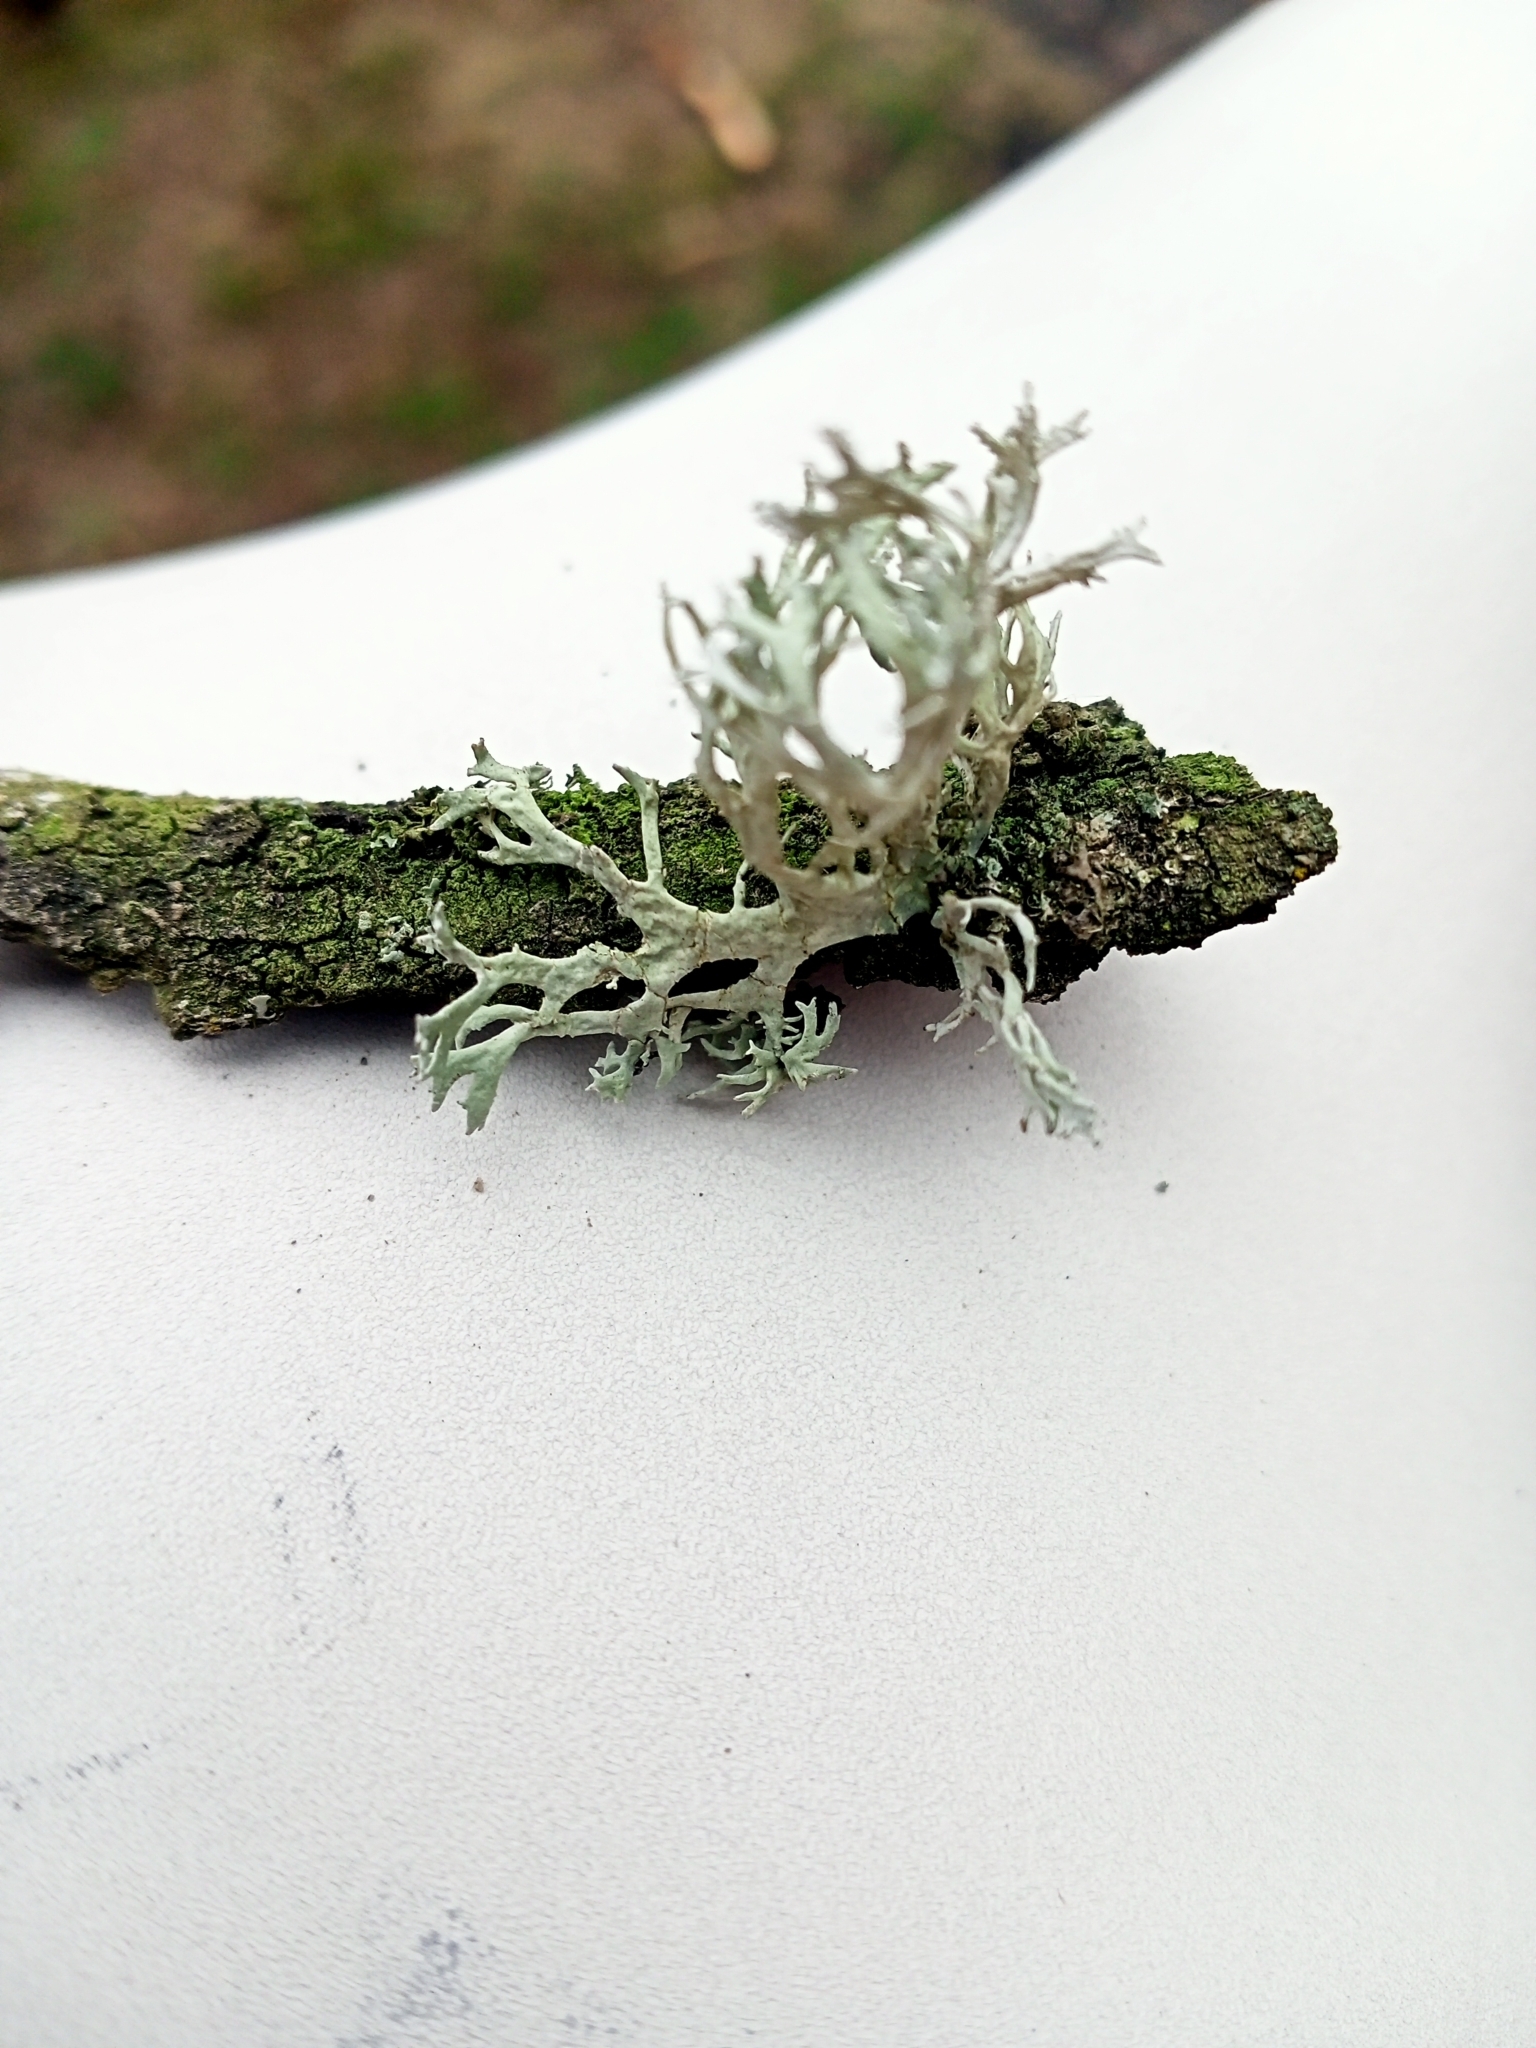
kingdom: Fungi
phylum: Ascomycota
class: Lecanoromycetes
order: Lecanorales
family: Parmeliaceae
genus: Evernia
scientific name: Evernia prunastri
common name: Oak moss
